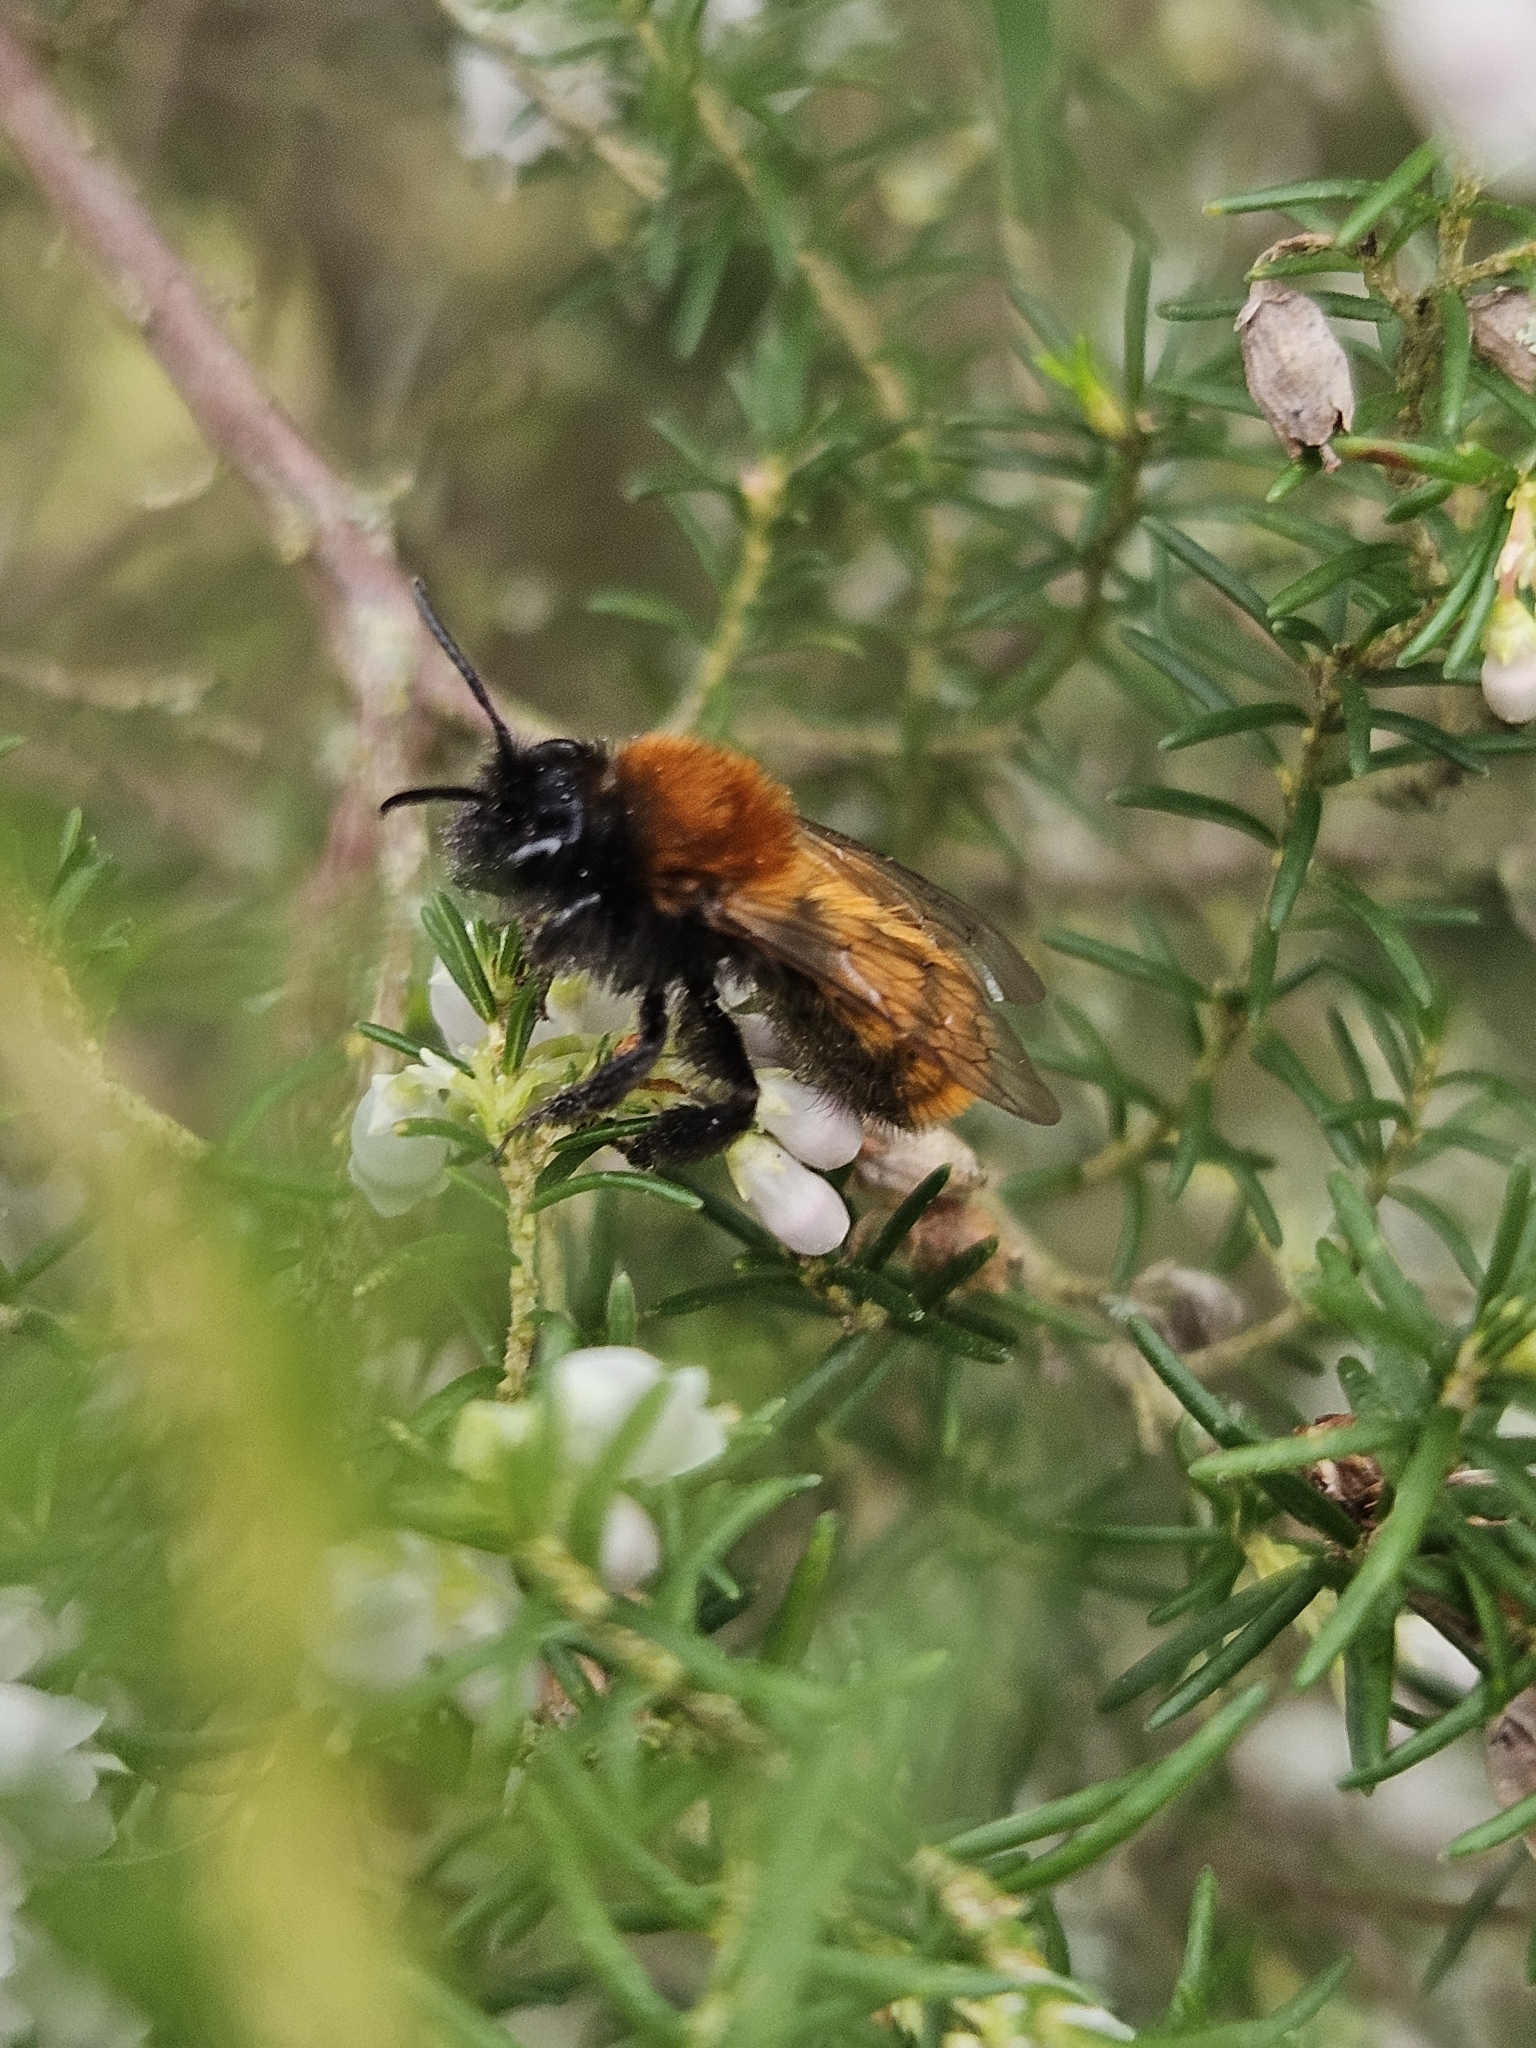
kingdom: Animalia
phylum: Arthropoda
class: Insecta
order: Hymenoptera
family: Andrenidae
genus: Andrena
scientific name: Andrena fulva
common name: Tawny mining bee
